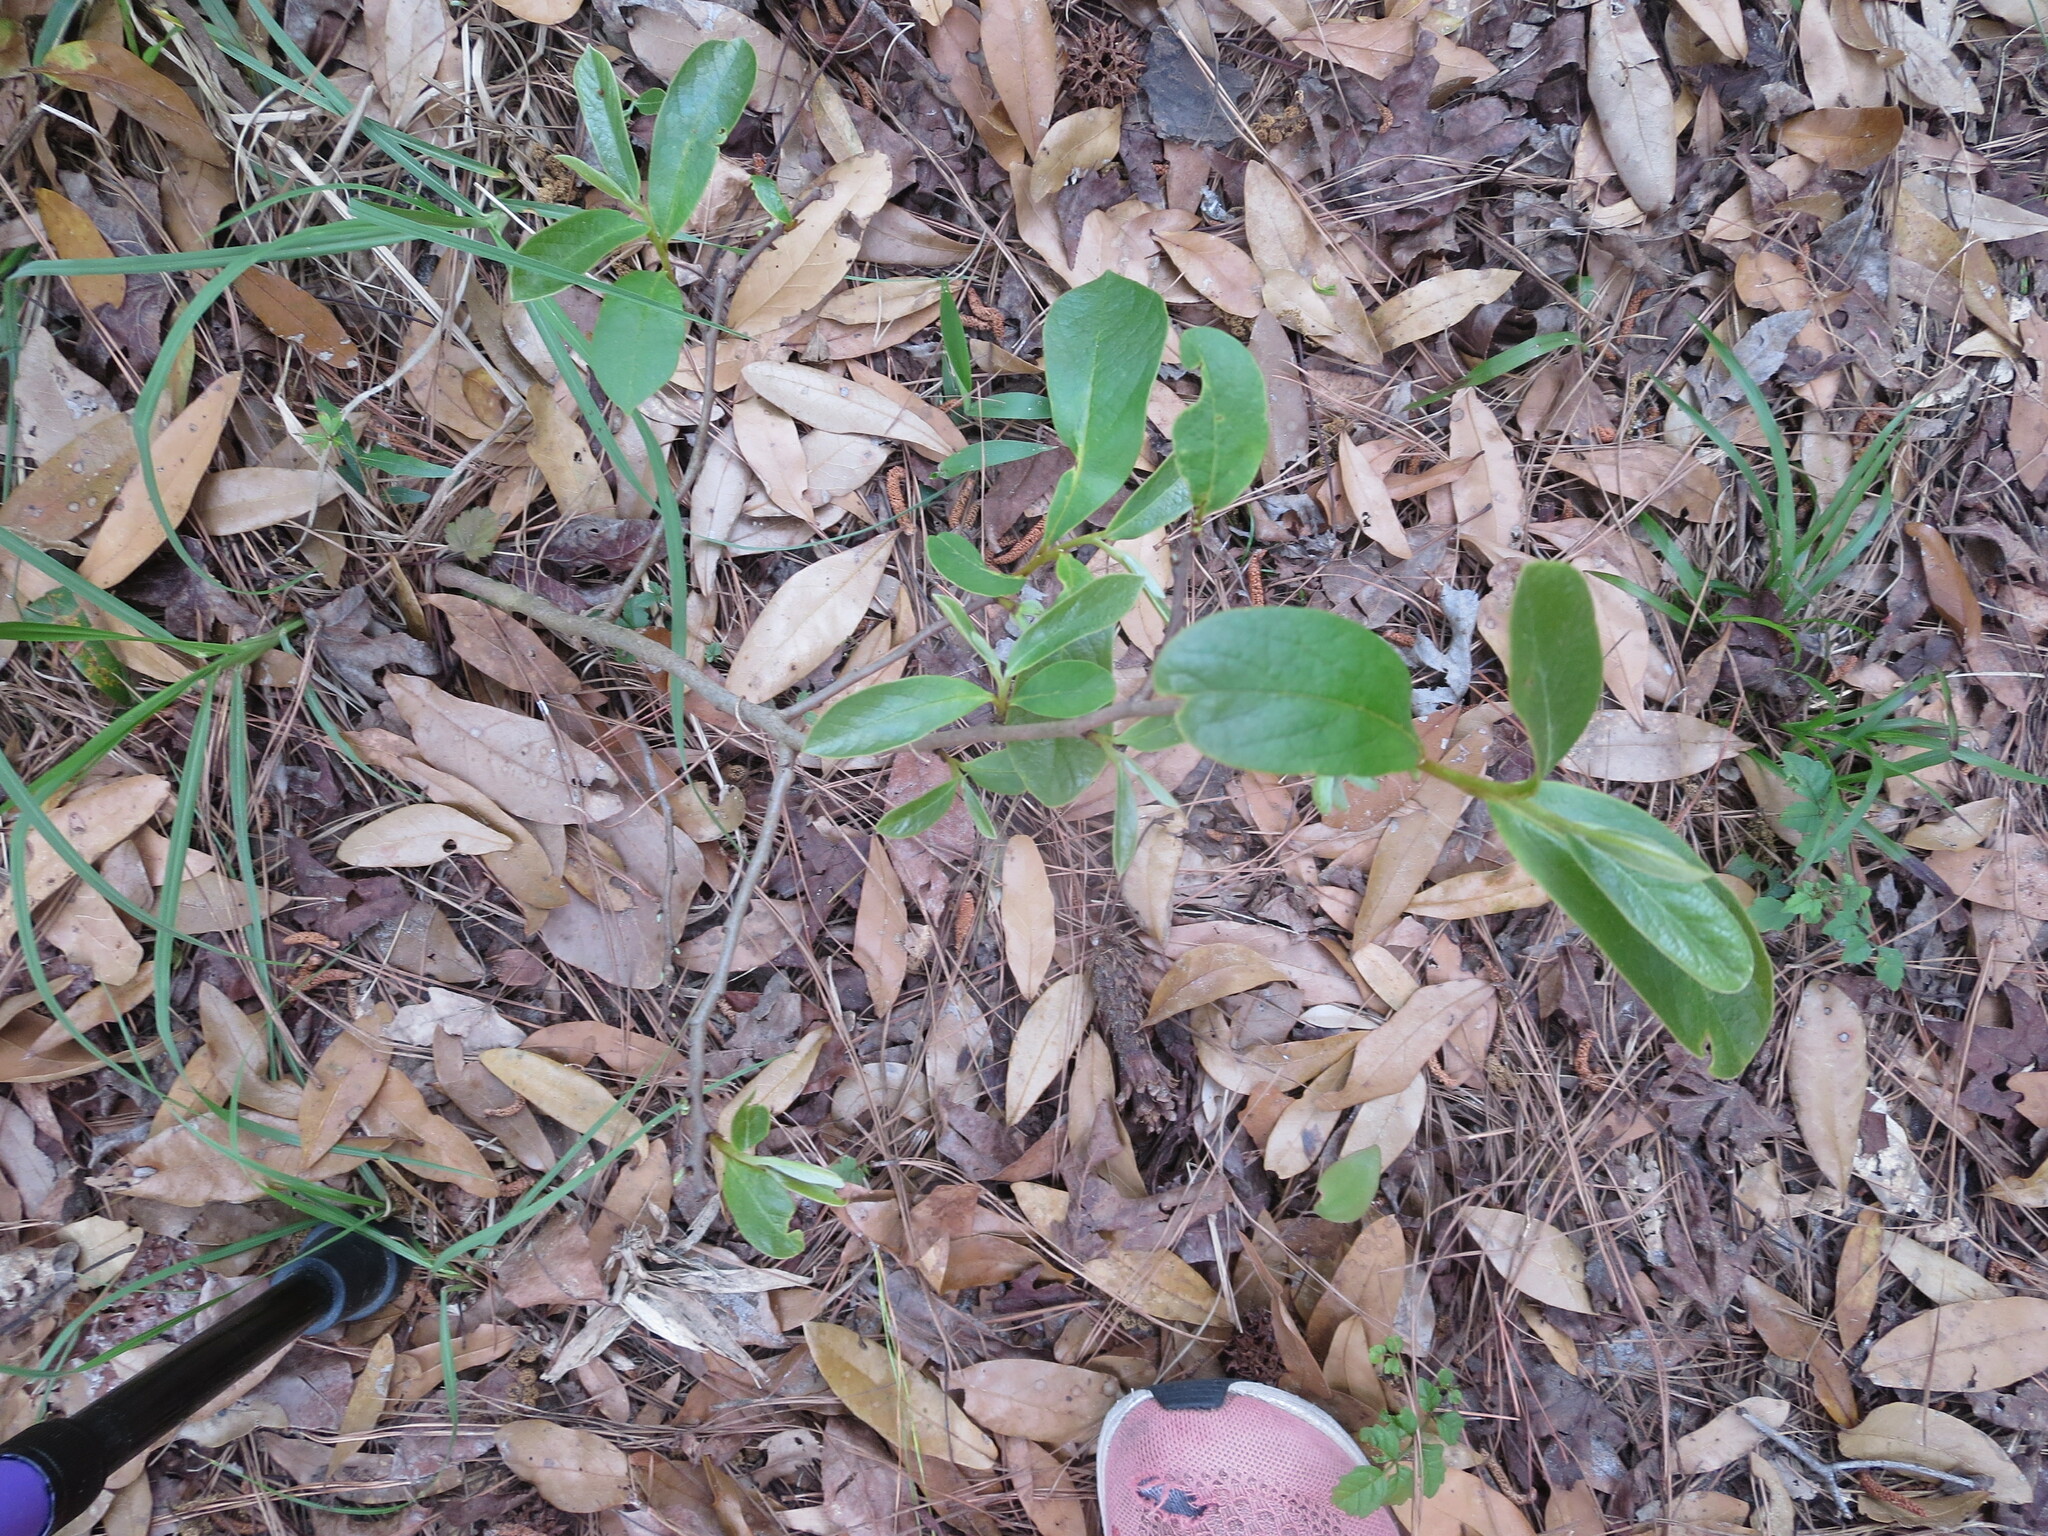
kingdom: Plantae
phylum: Tracheophyta
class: Magnoliopsida
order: Magnoliales
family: Annonaceae
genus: Asimina
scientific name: Asimina parviflora
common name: Dwarf pawpaw
